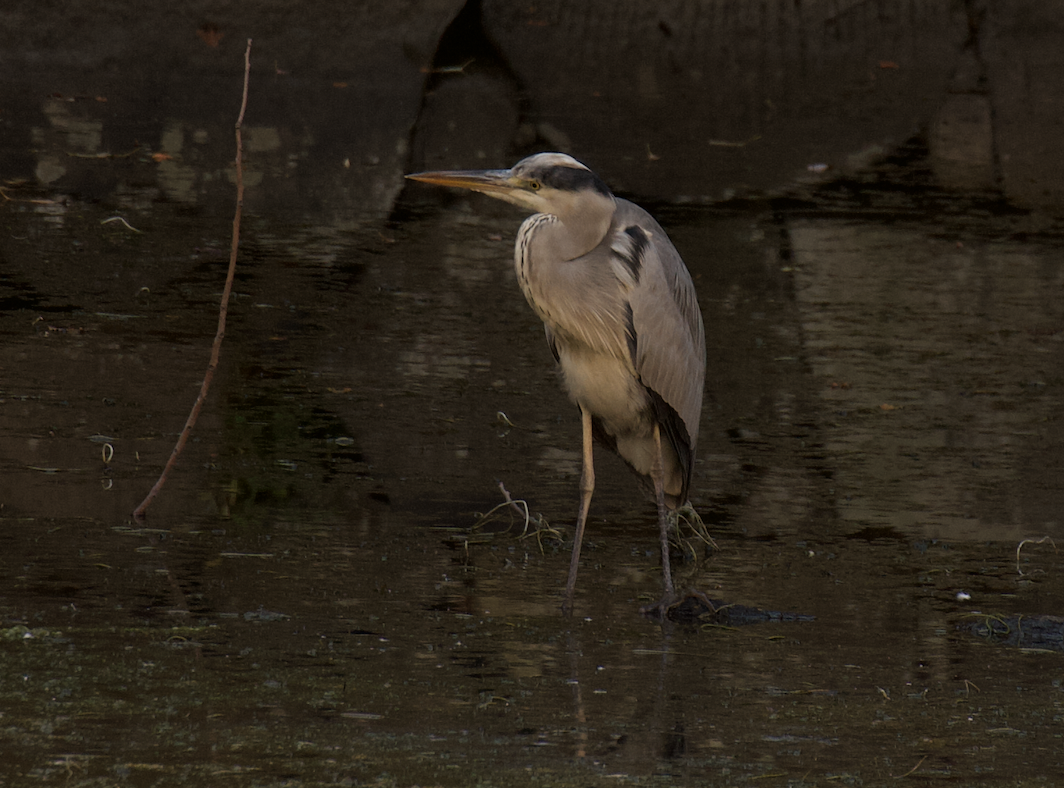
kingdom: Animalia
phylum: Chordata
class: Aves
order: Pelecaniformes
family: Ardeidae
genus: Ardea
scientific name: Ardea cinerea
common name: Grey heron
